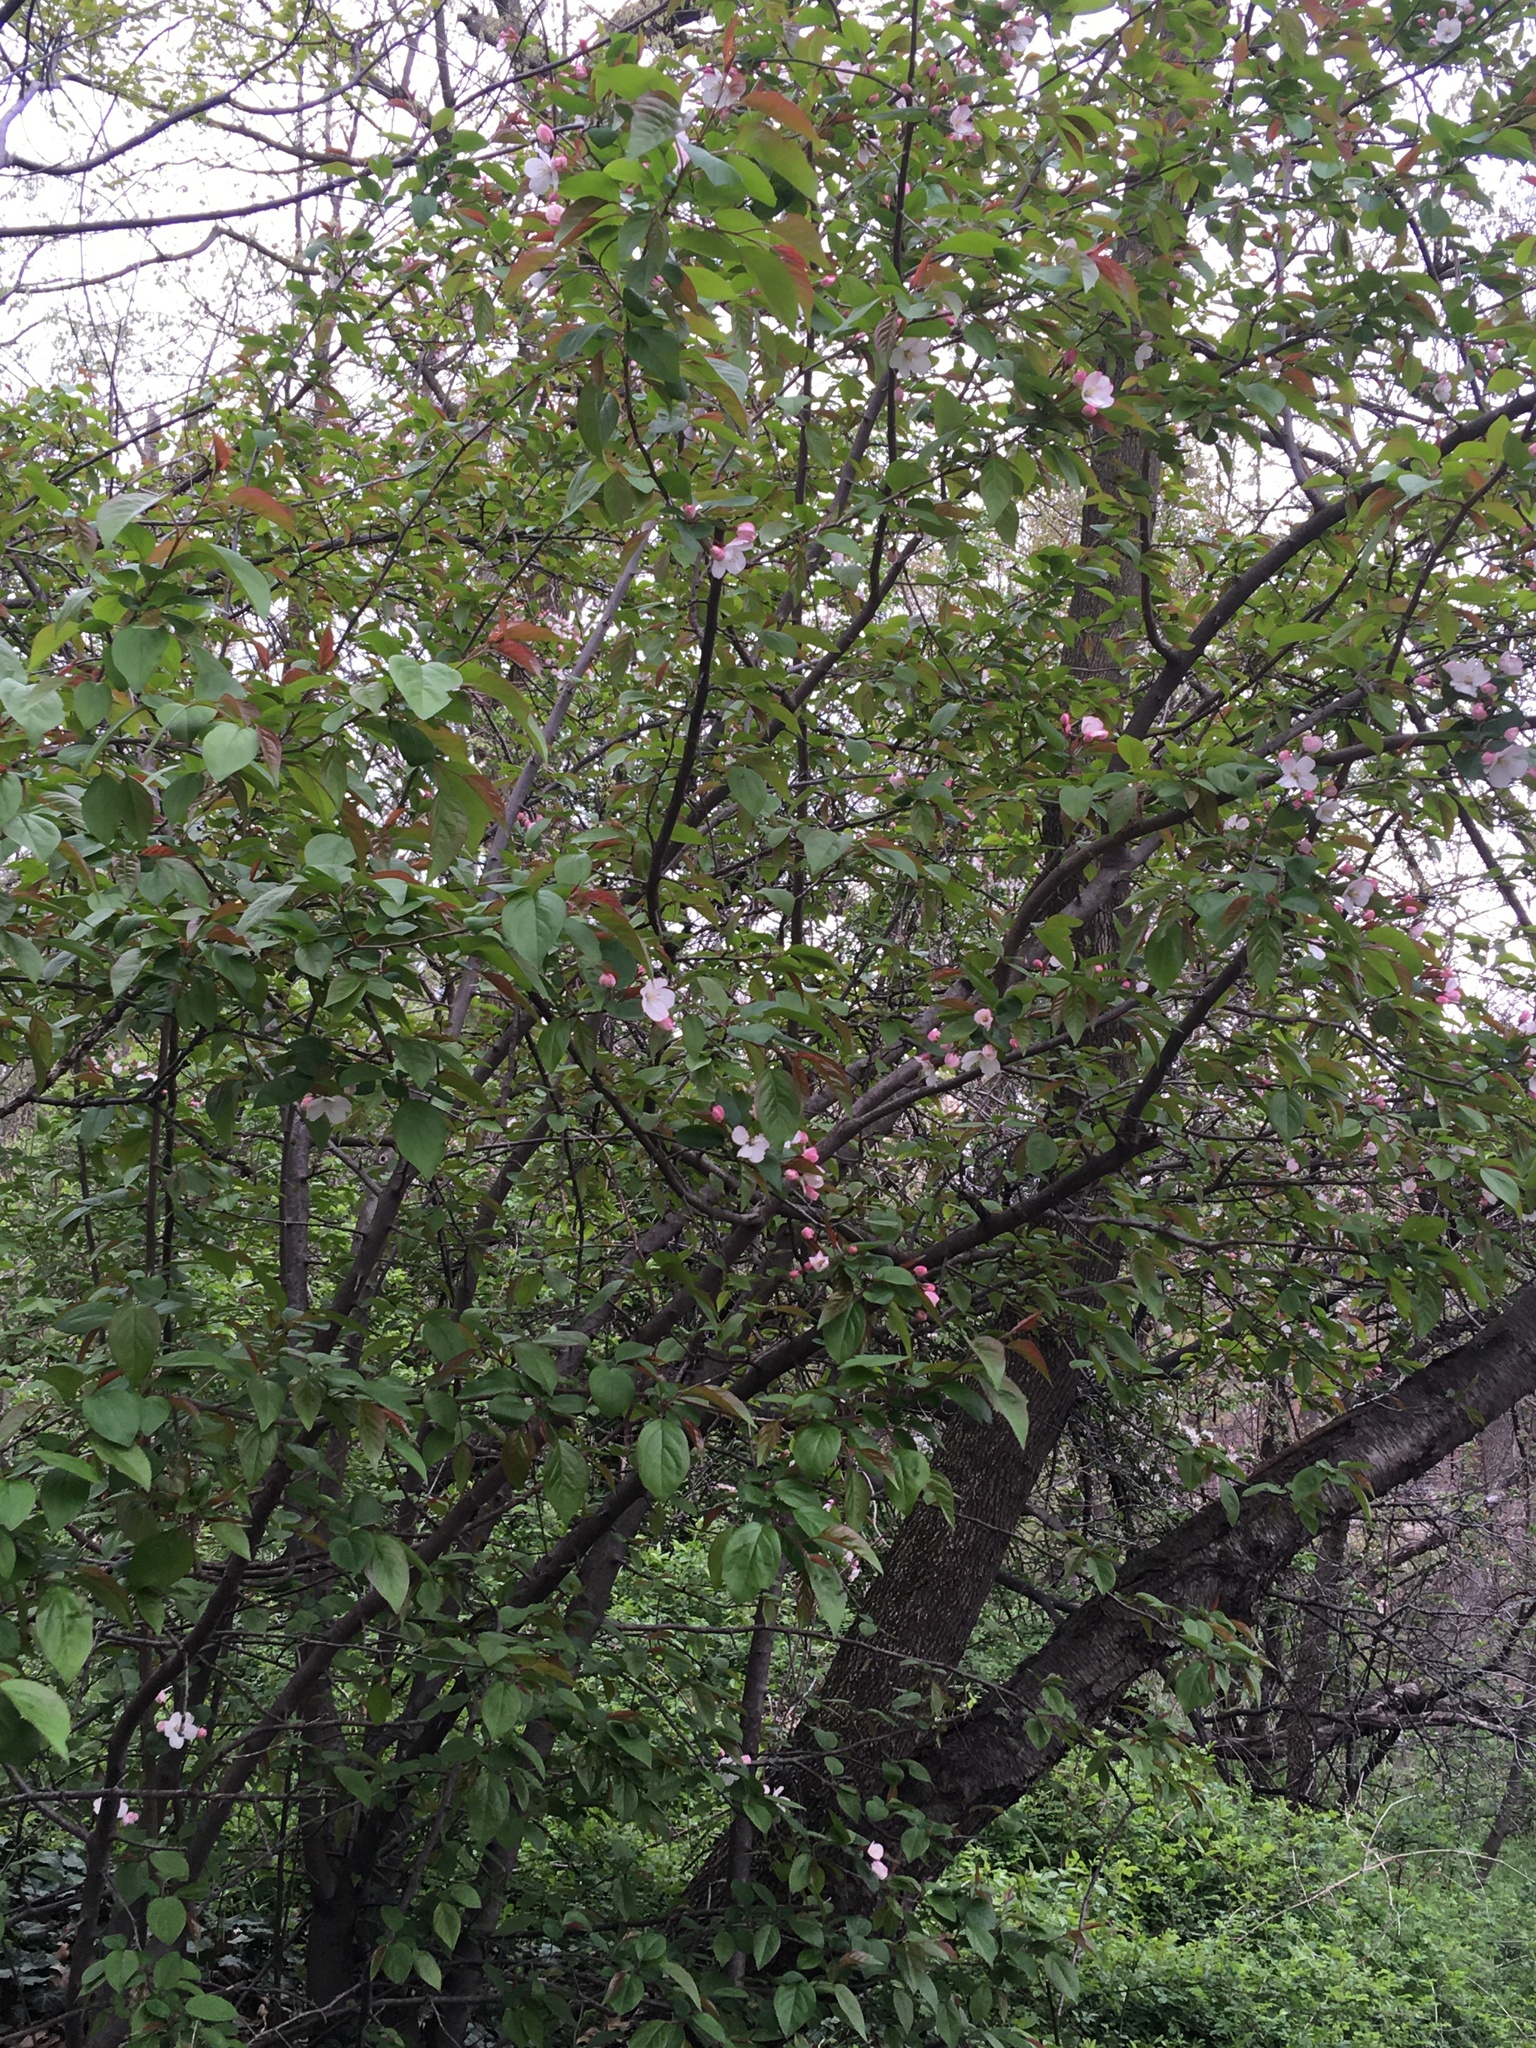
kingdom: Plantae
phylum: Tracheophyta
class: Magnoliopsida
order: Rosales
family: Rosaceae
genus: Malus
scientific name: Malus hupehensis
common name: Chinese crab apple
